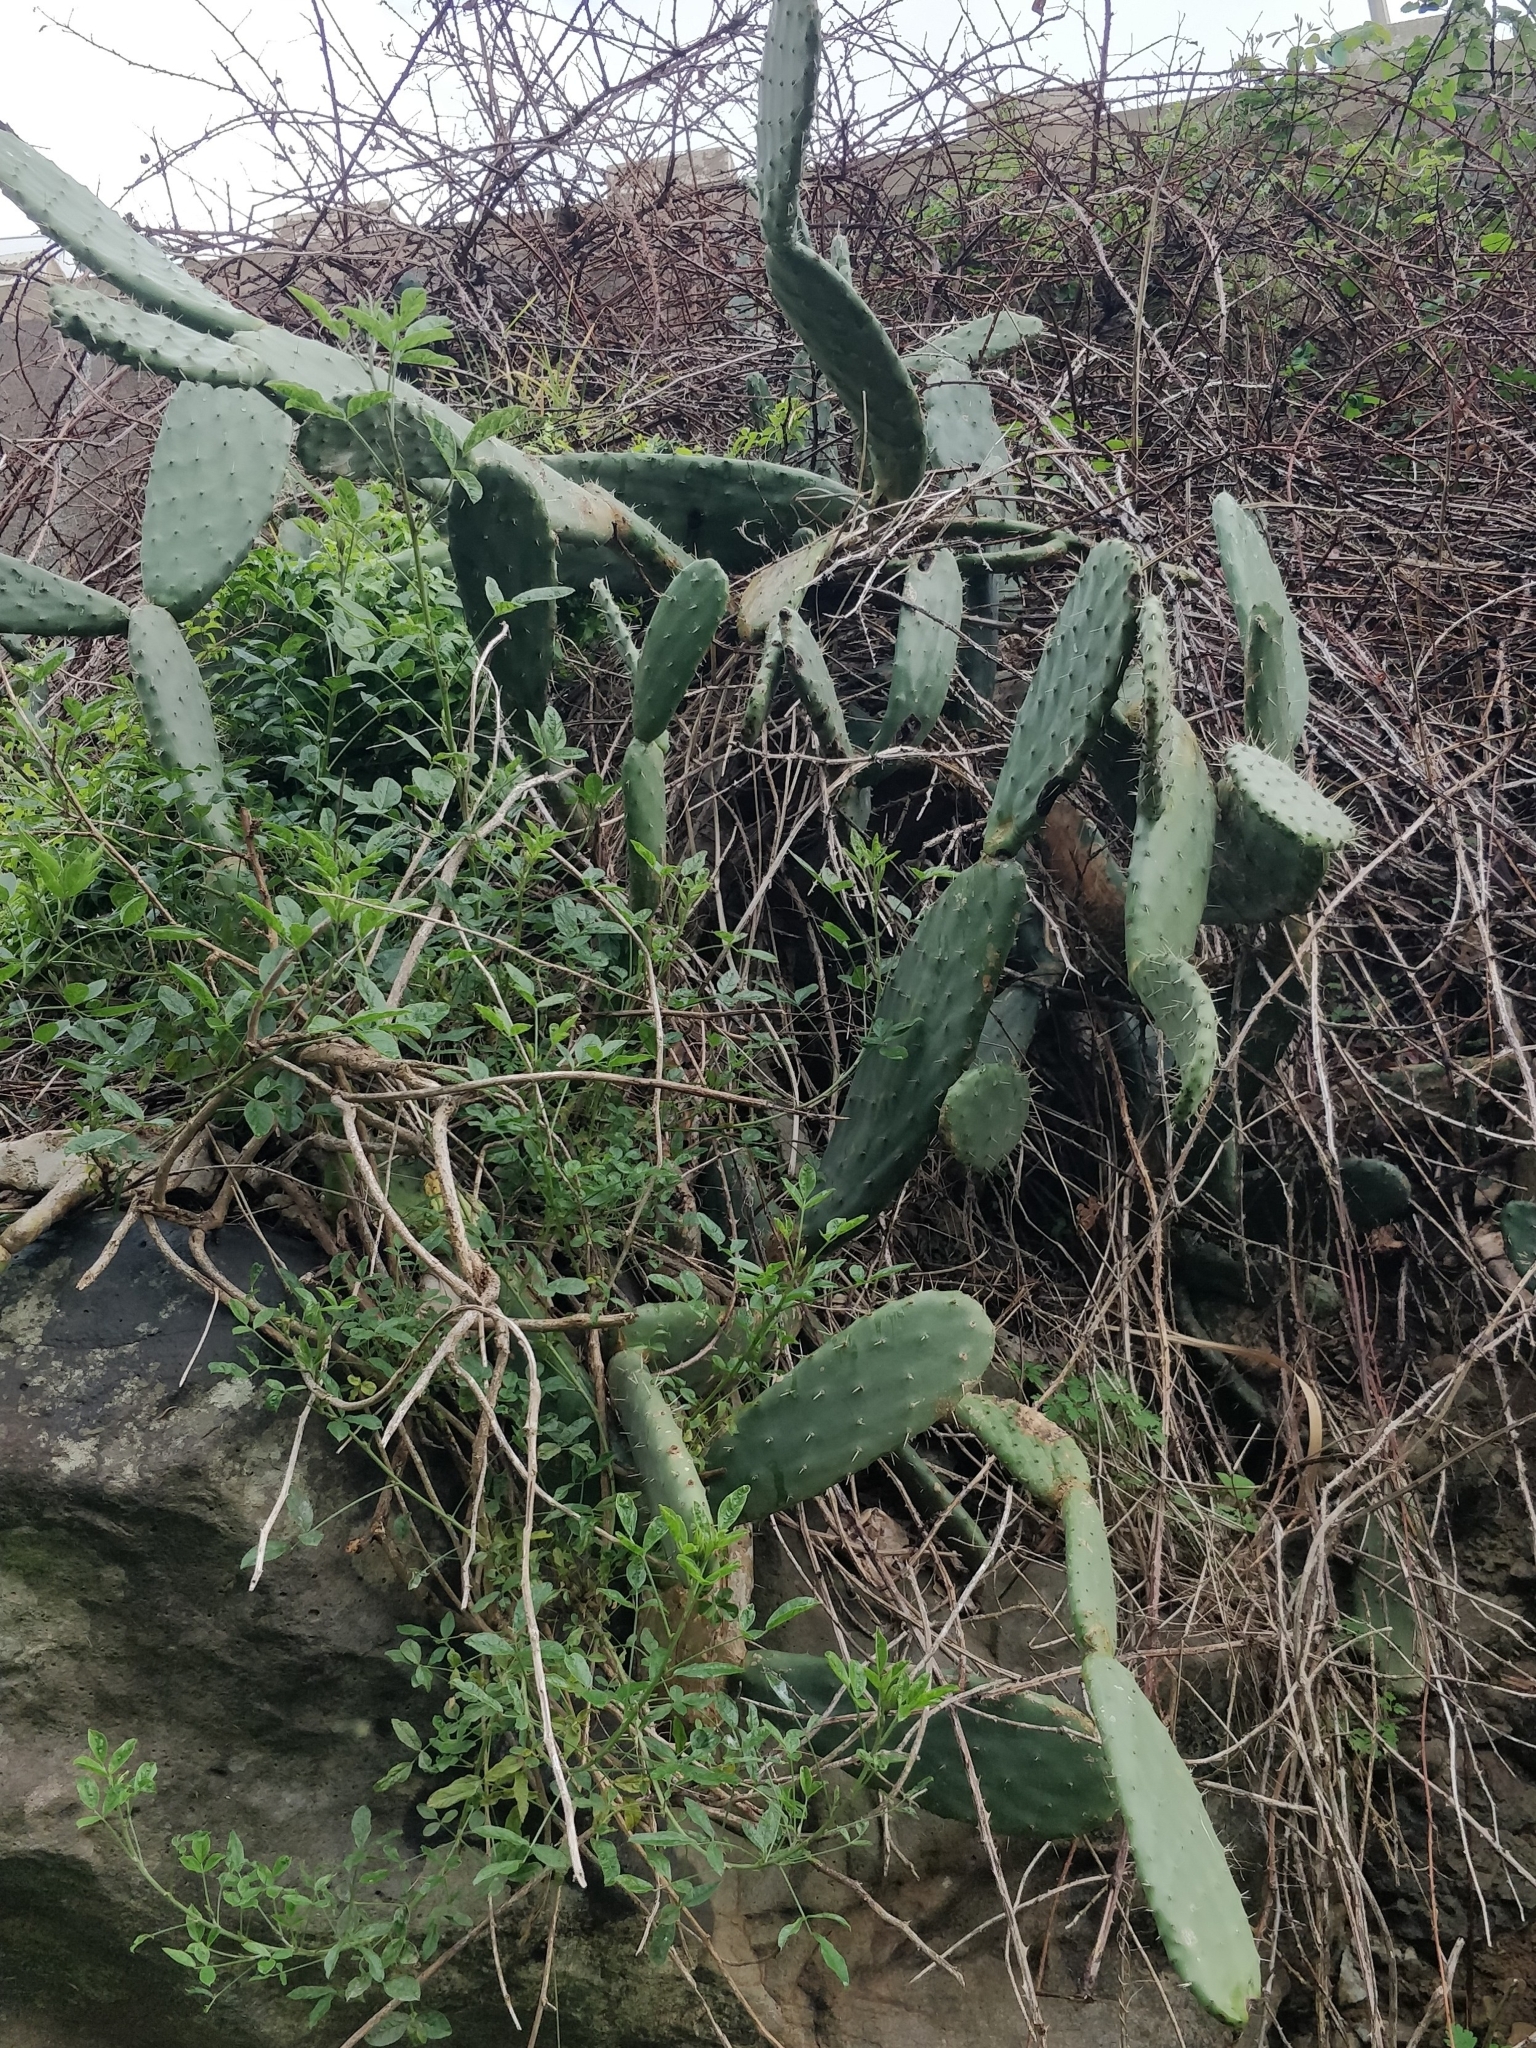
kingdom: Plantae
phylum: Tracheophyta
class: Magnoliopsida
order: Caryophyllales
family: Cactaceae
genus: Opuntia
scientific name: Opuntia ficus-indica
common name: Barbary fig
